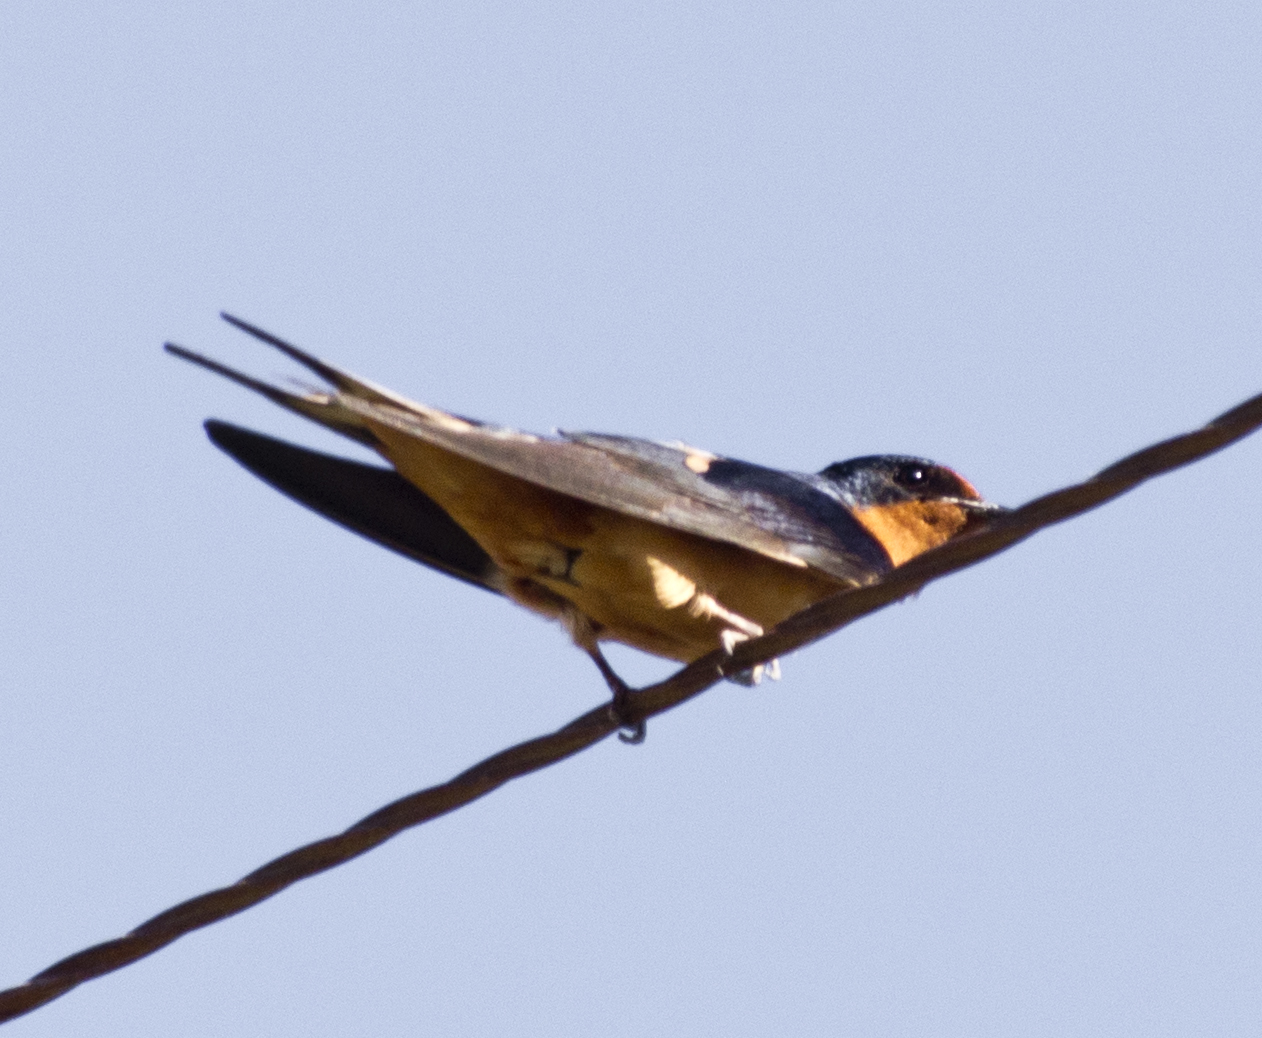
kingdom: Animalia
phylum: Chordata
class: Aves
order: Passeriformes
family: Hirundinidae
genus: Hirundo
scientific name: Hirundo rustica
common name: Barn swallow
